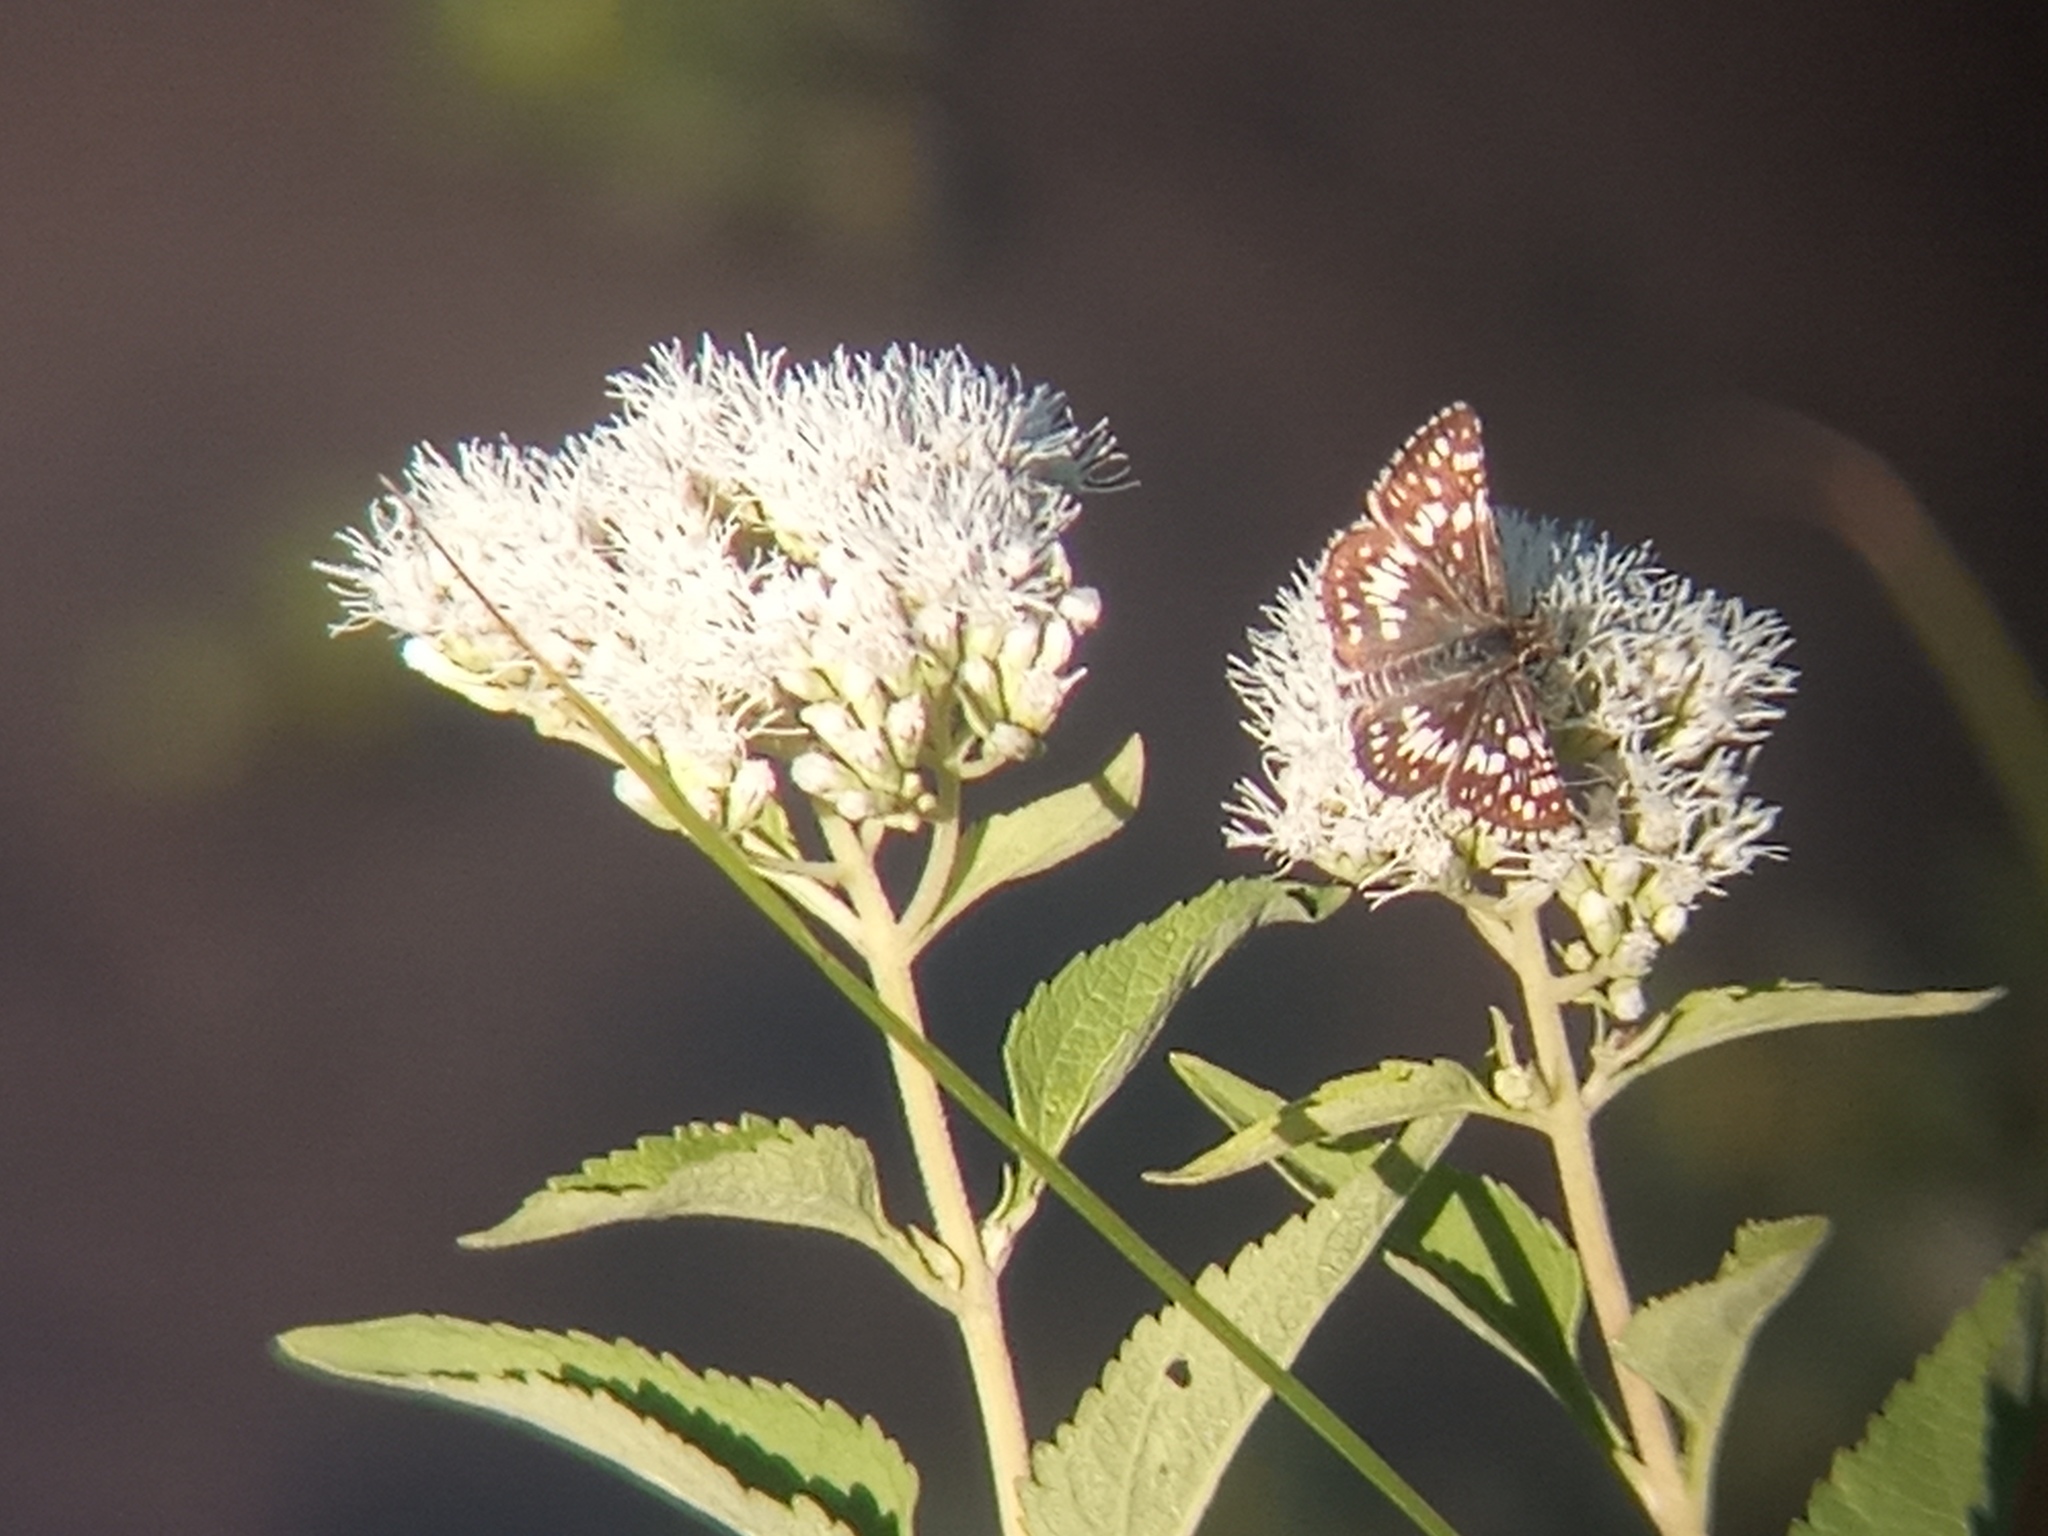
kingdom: Animalia
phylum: Arthropoda
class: Insecta
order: Lepidoptera
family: Hesperiidae
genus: Burnsius
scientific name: Burnsius orcynoides
